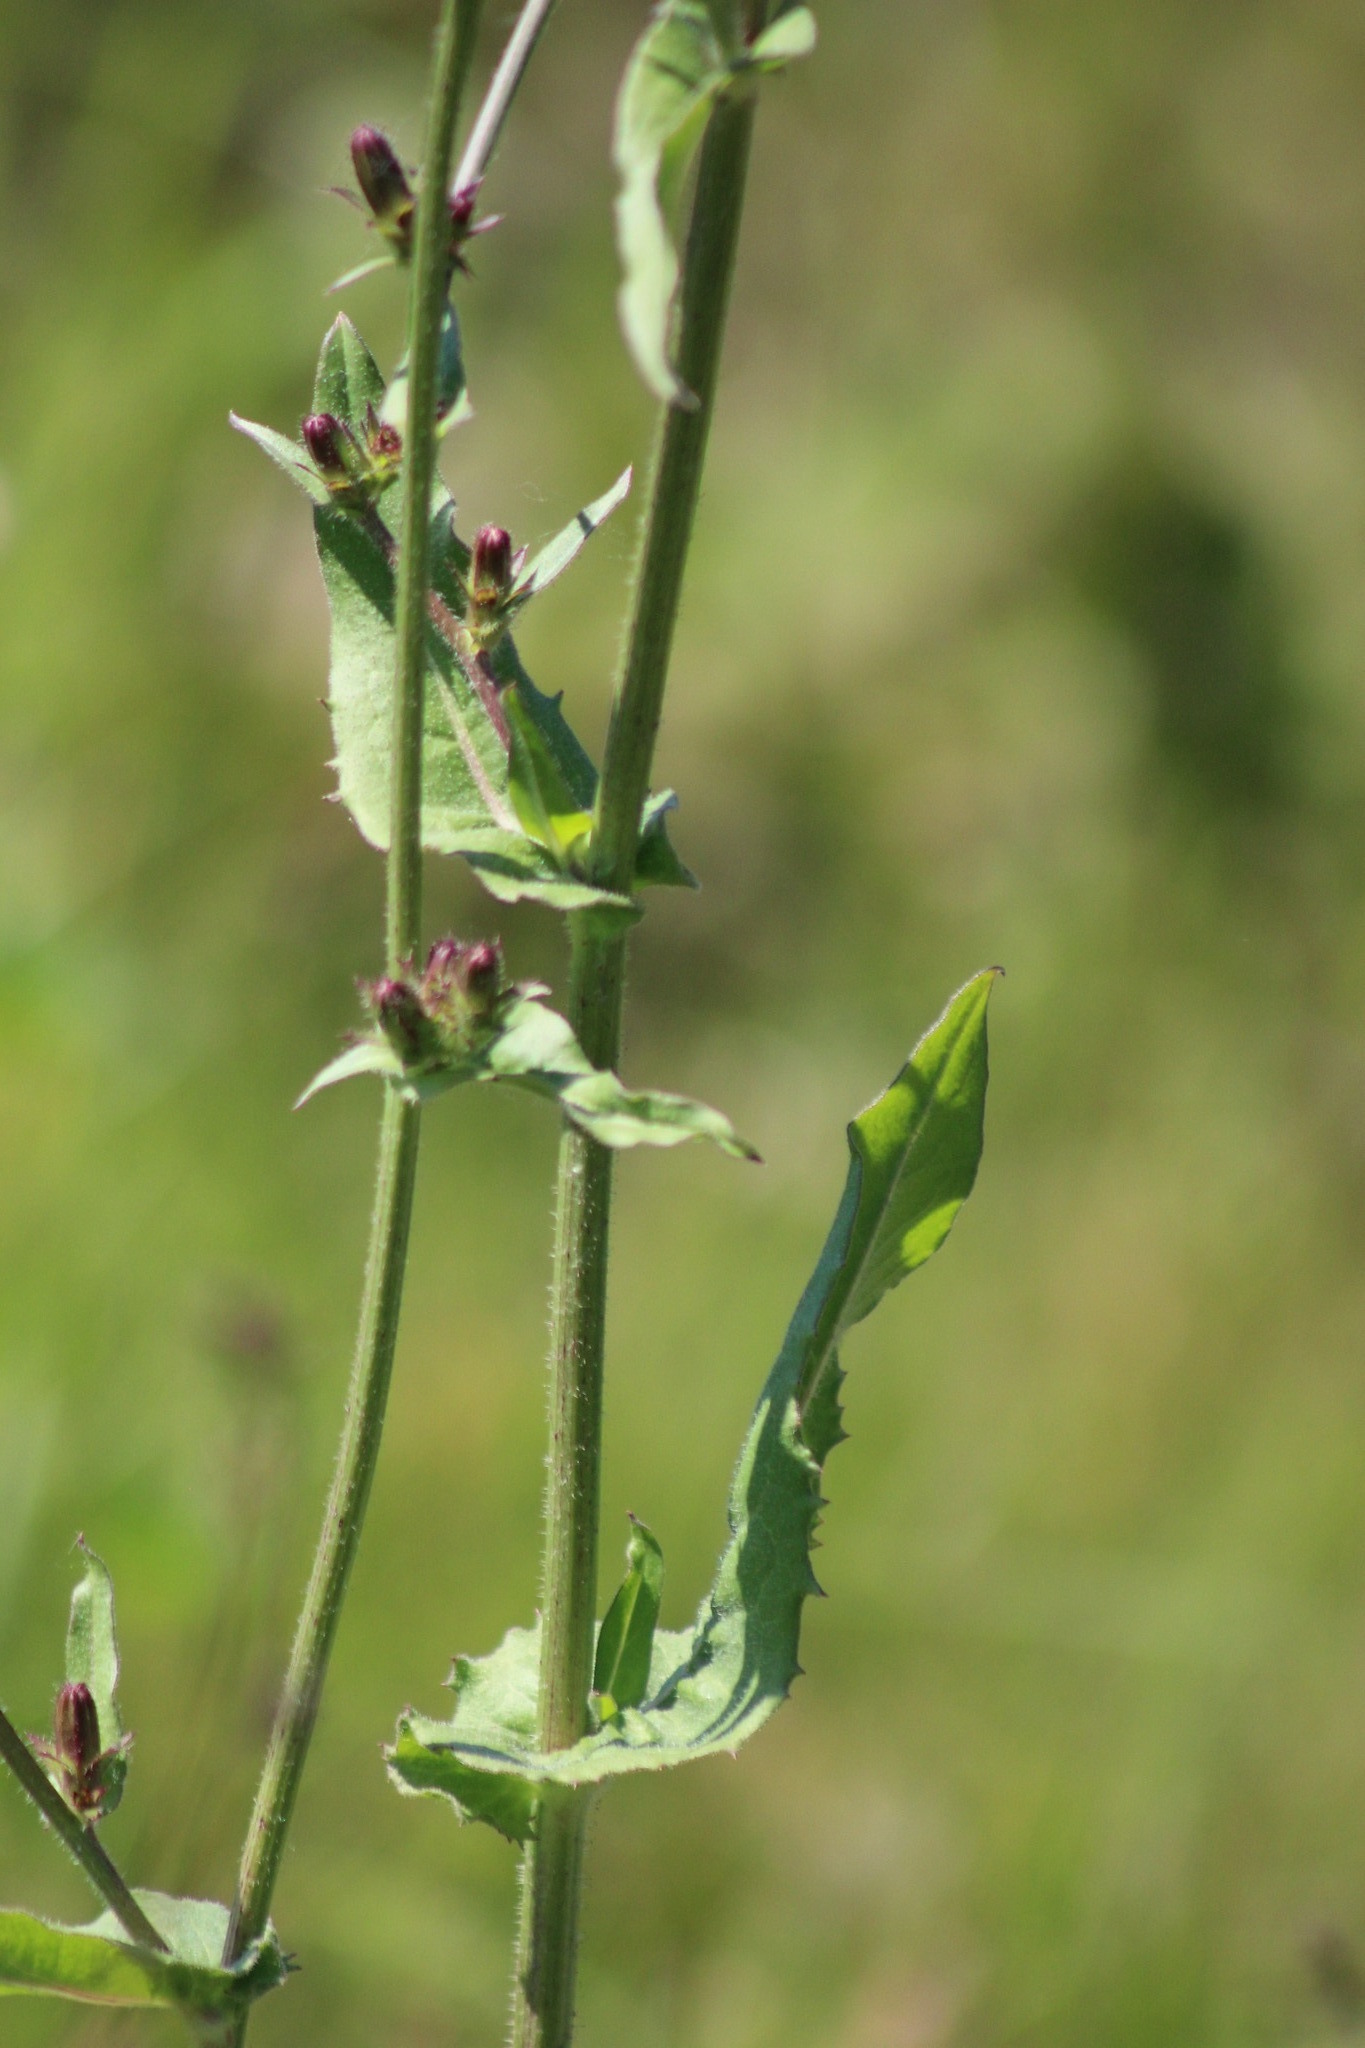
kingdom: Plantae
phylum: Tracheophyta
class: Magnoliopsida
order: Asterales
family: Asteraceae
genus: Cichorium
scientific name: Cichorium intybus
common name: Chicory
